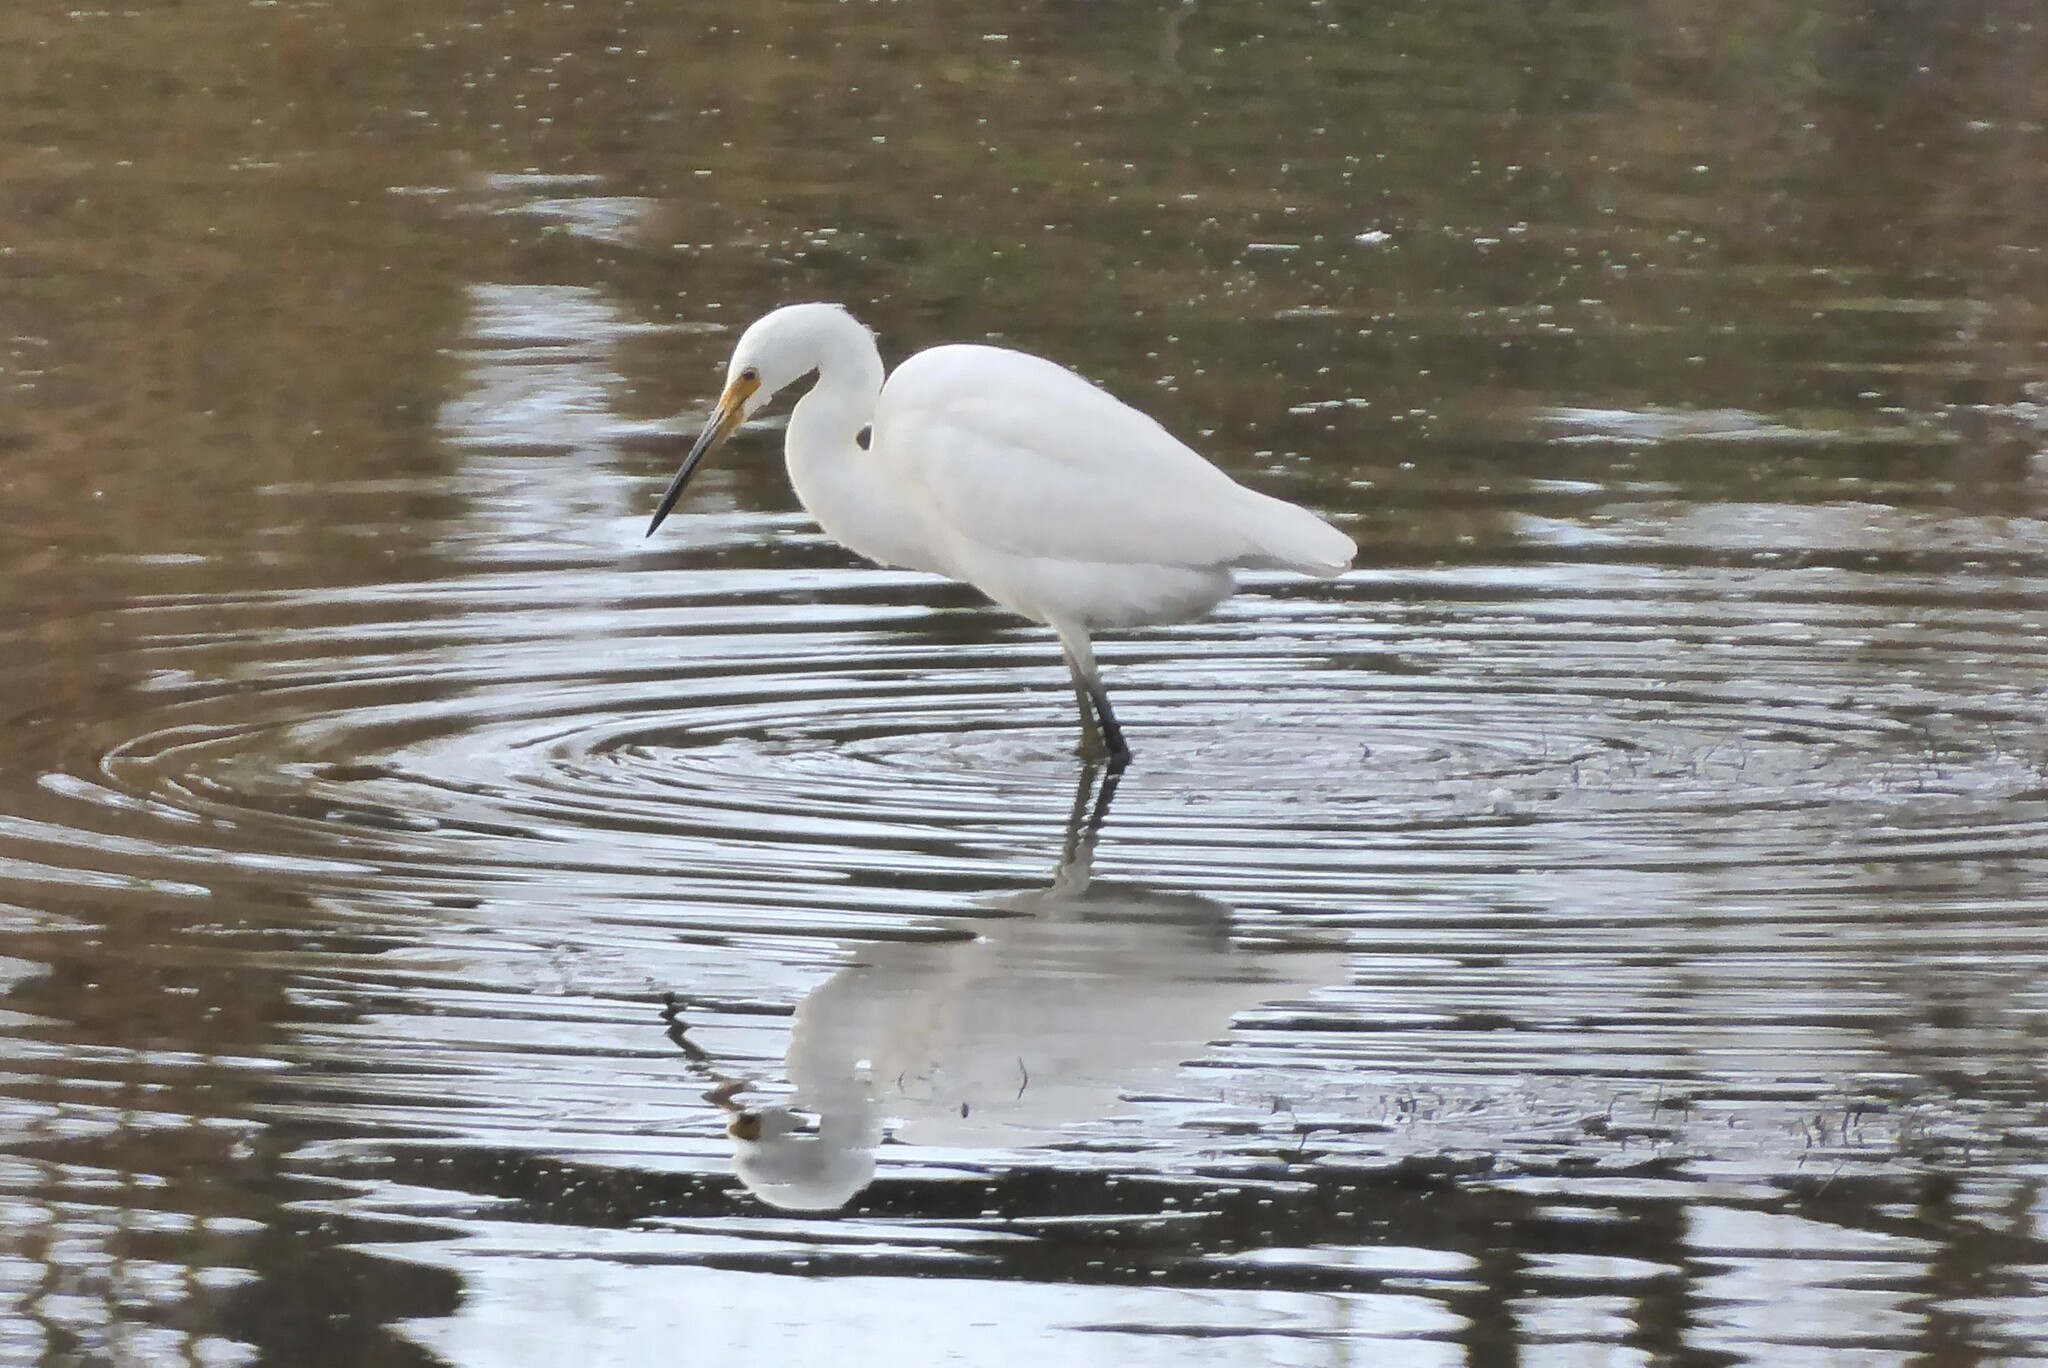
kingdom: Animalia
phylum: Chordata
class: Aves
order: Pelecaniformes
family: Ardeidae
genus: Egretta
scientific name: Egretta garzetta
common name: Little egret
